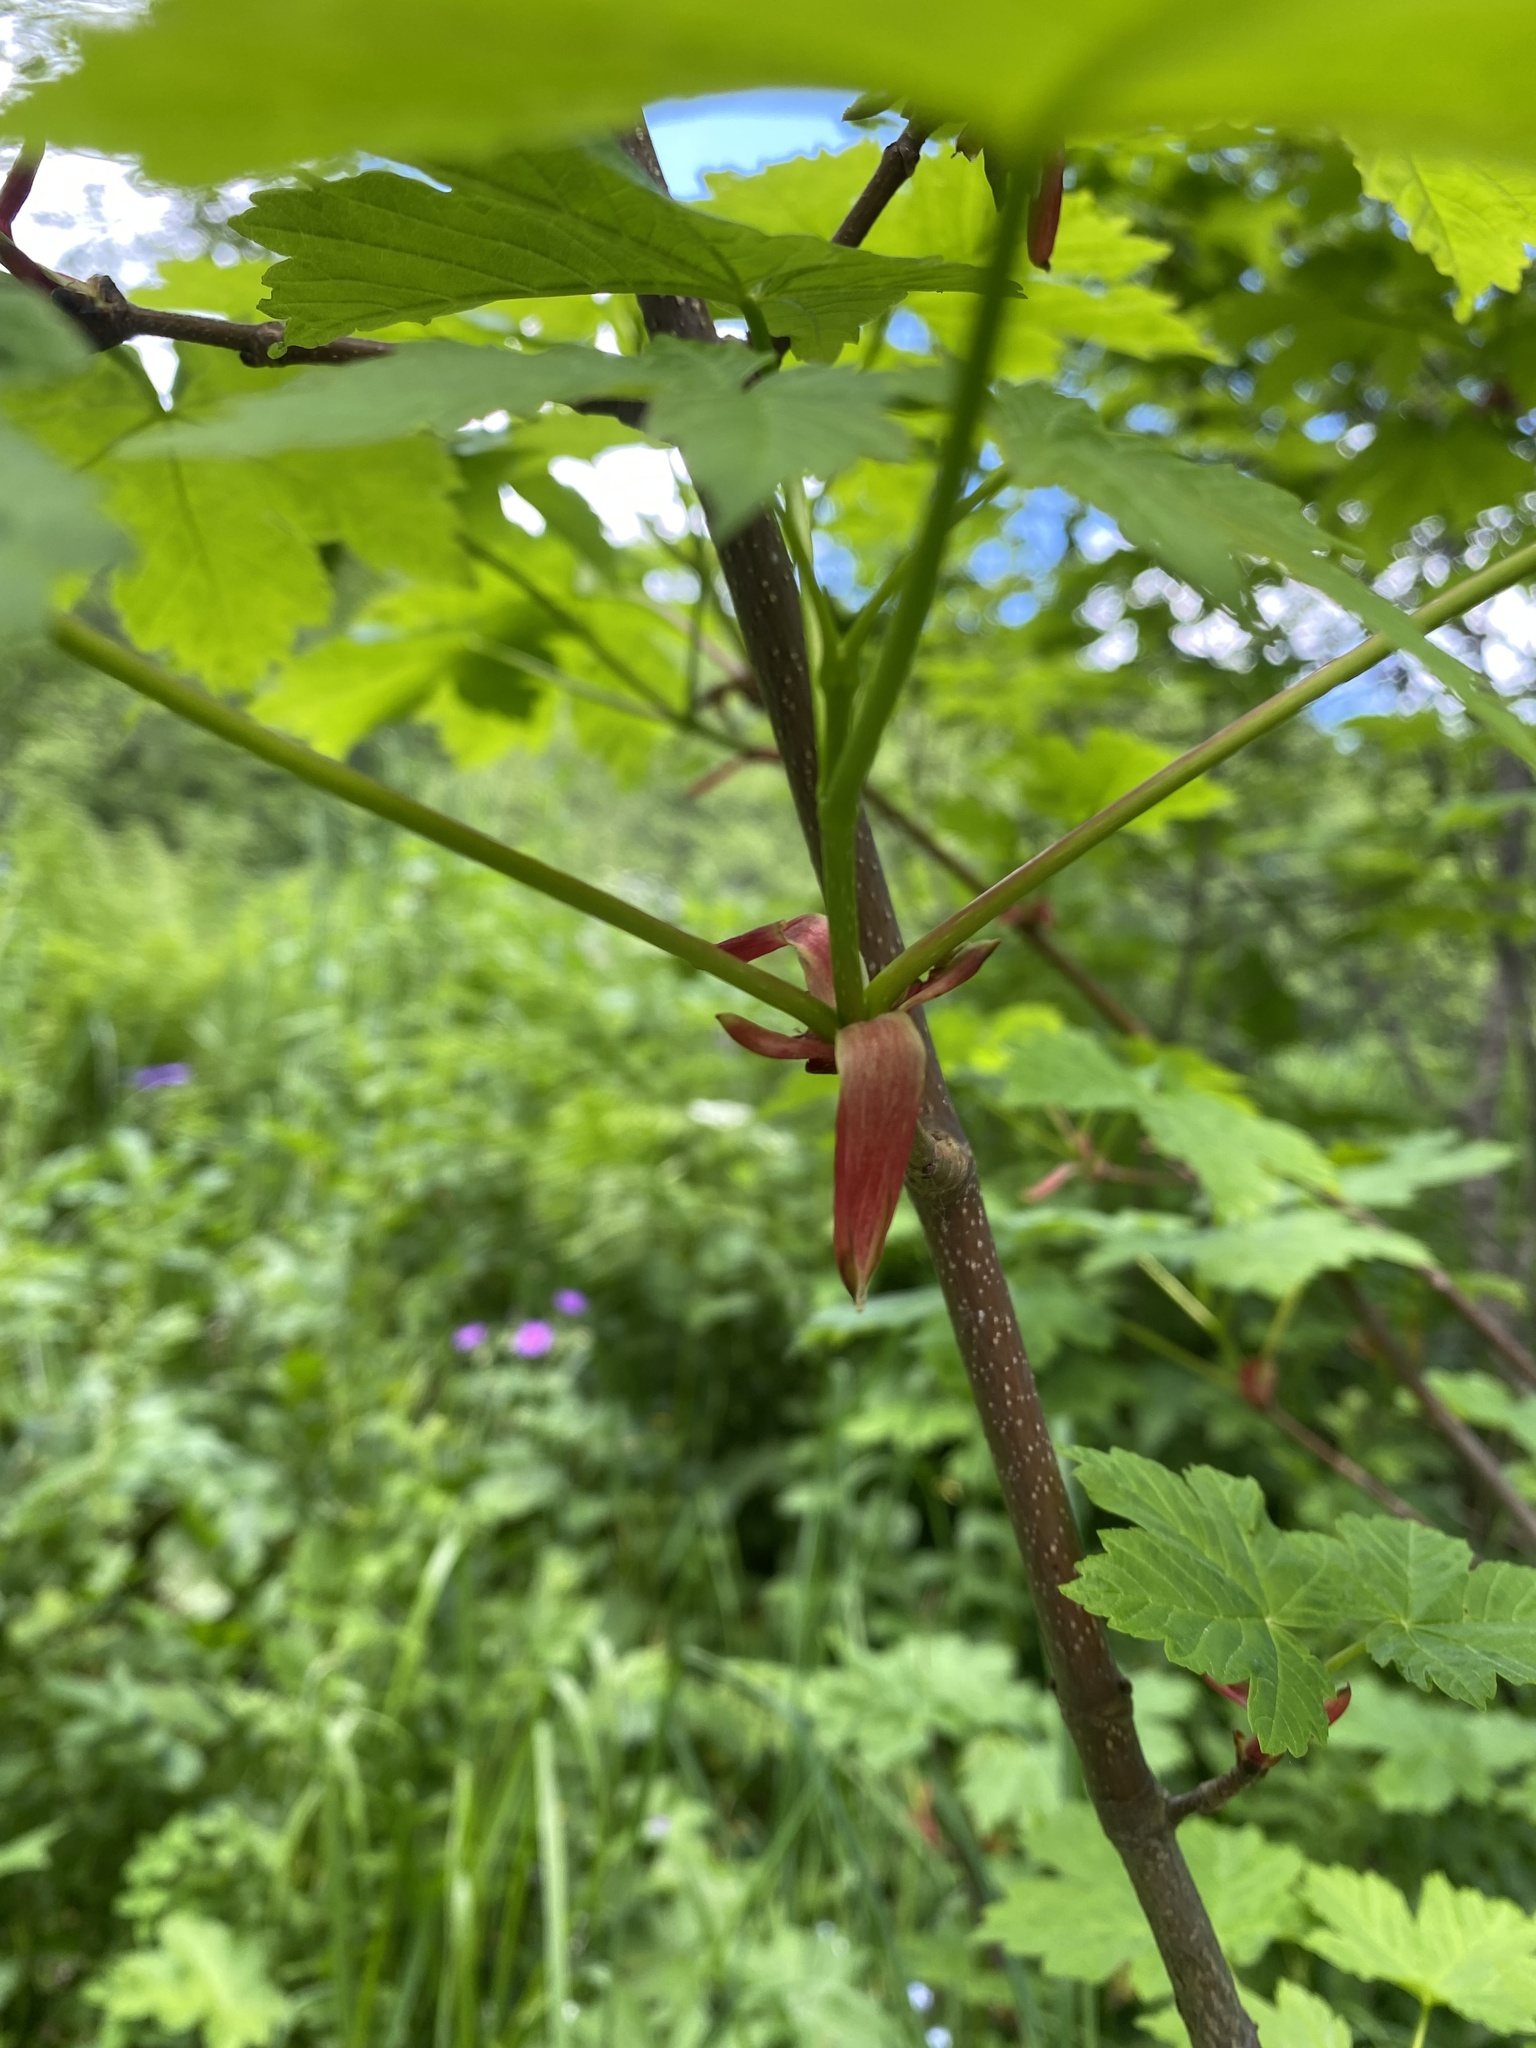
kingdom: Plantae
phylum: Tracheophyta
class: Magnoliopsida
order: Sapindales
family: Sapindaceae
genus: Acer
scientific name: Acer pseudoplatanus
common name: Sycamore
